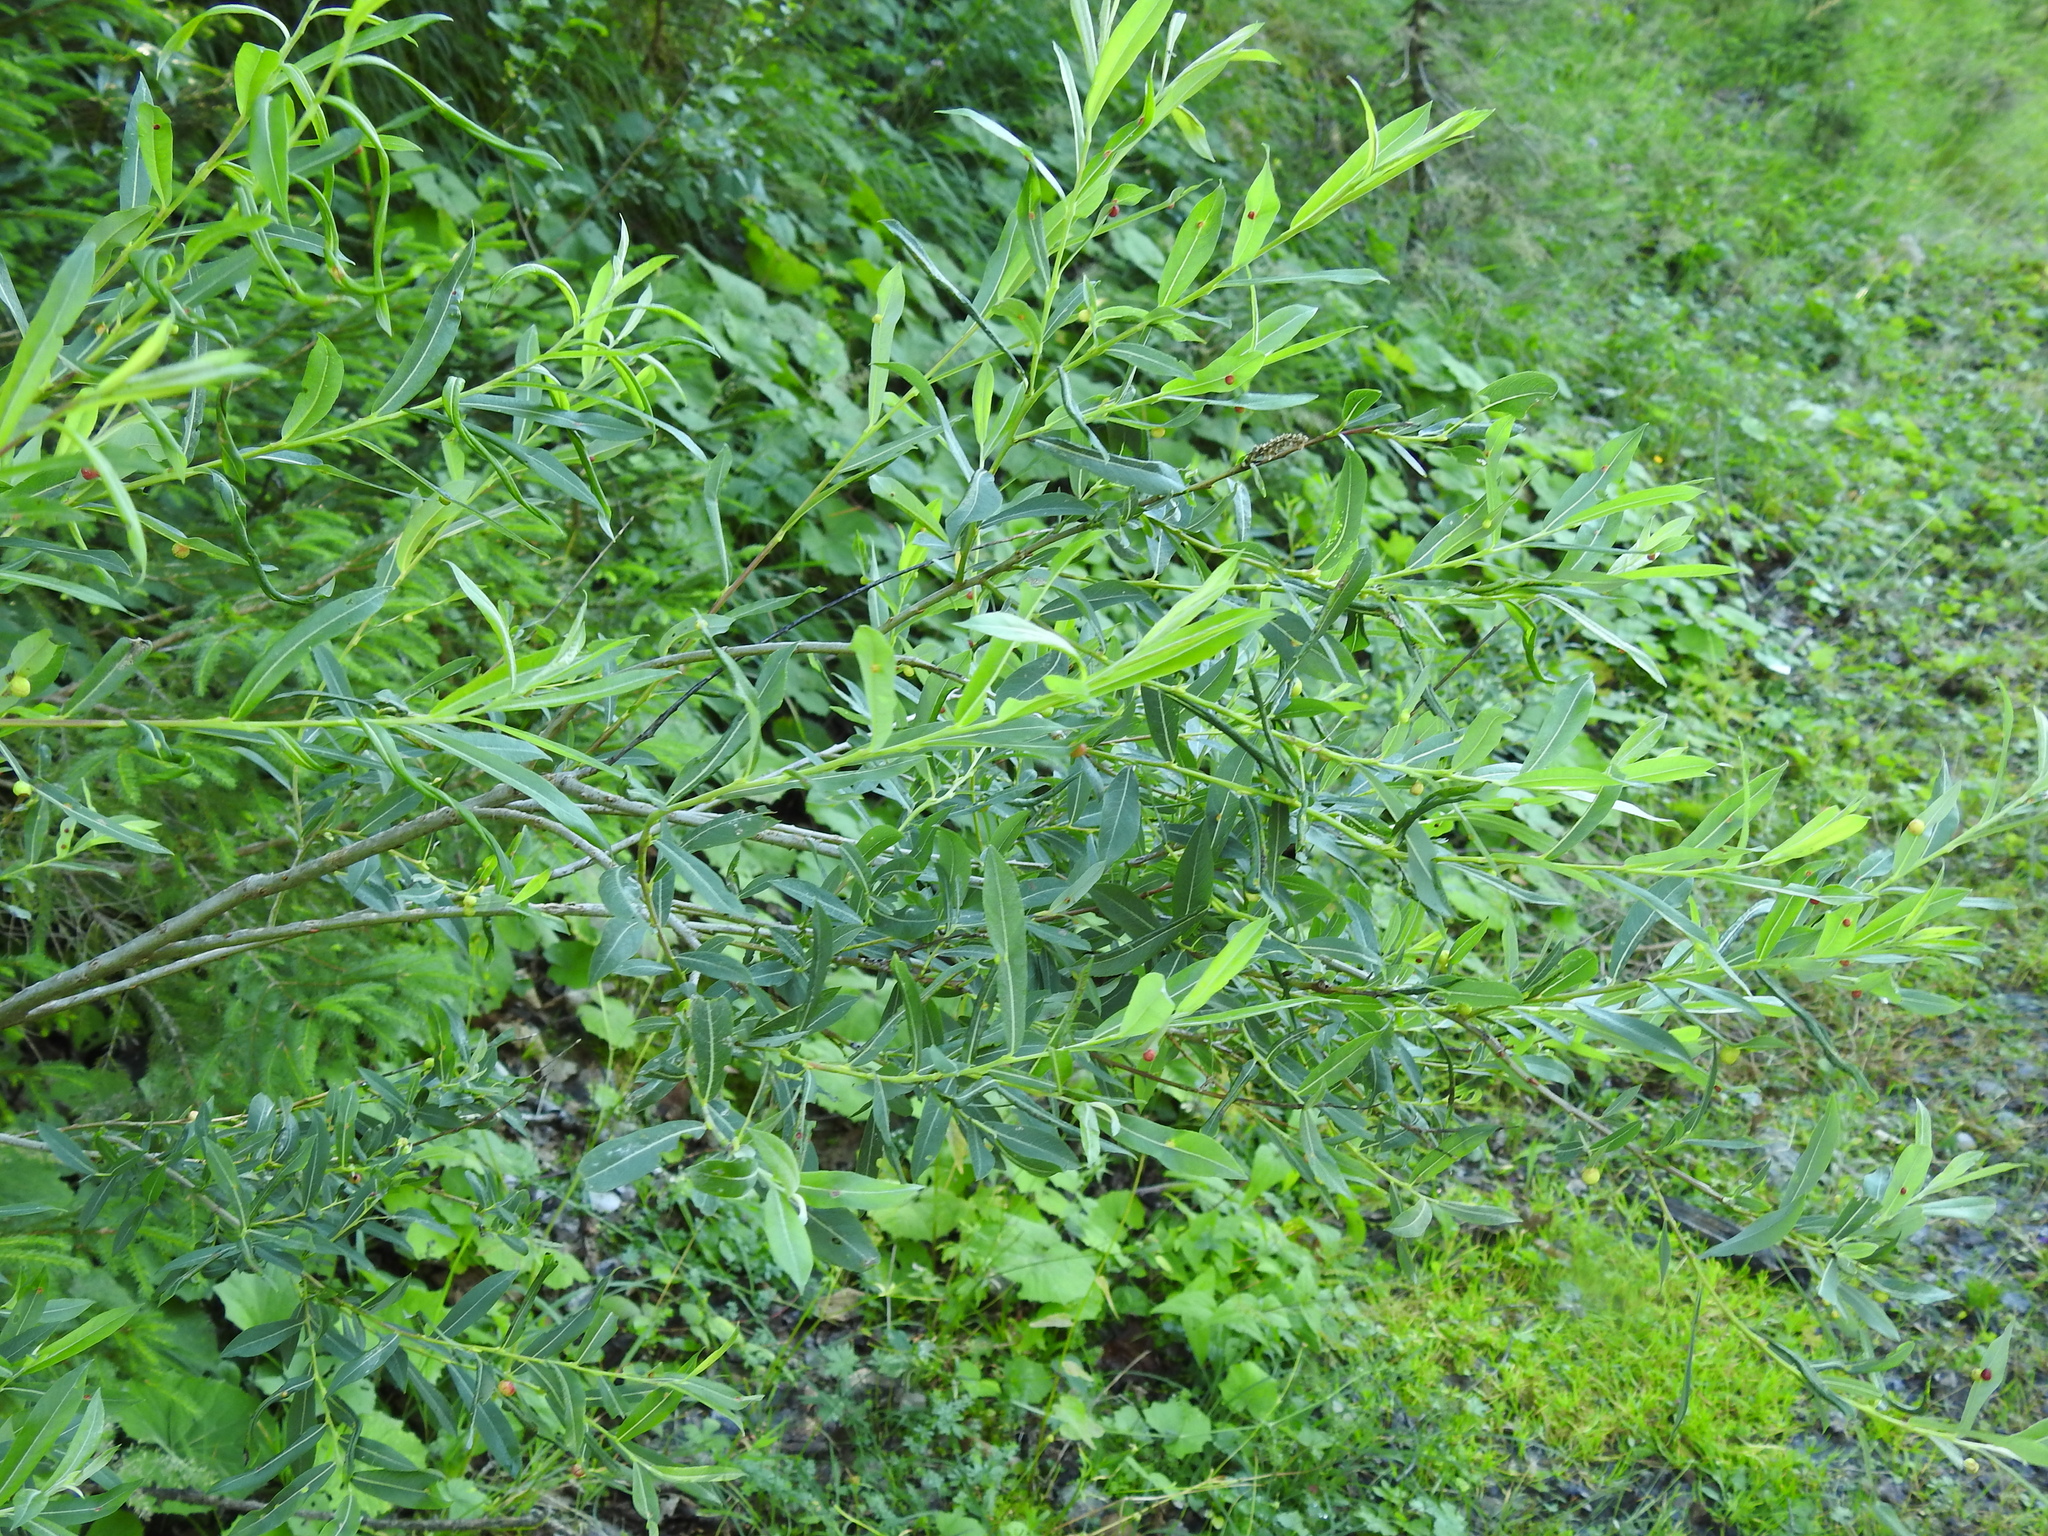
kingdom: Plantae
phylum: Tracheophyta
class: Magnoliopsida
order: Malpighiales
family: Salicaceae
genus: Salix
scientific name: Salix purpurea
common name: Purple willow
